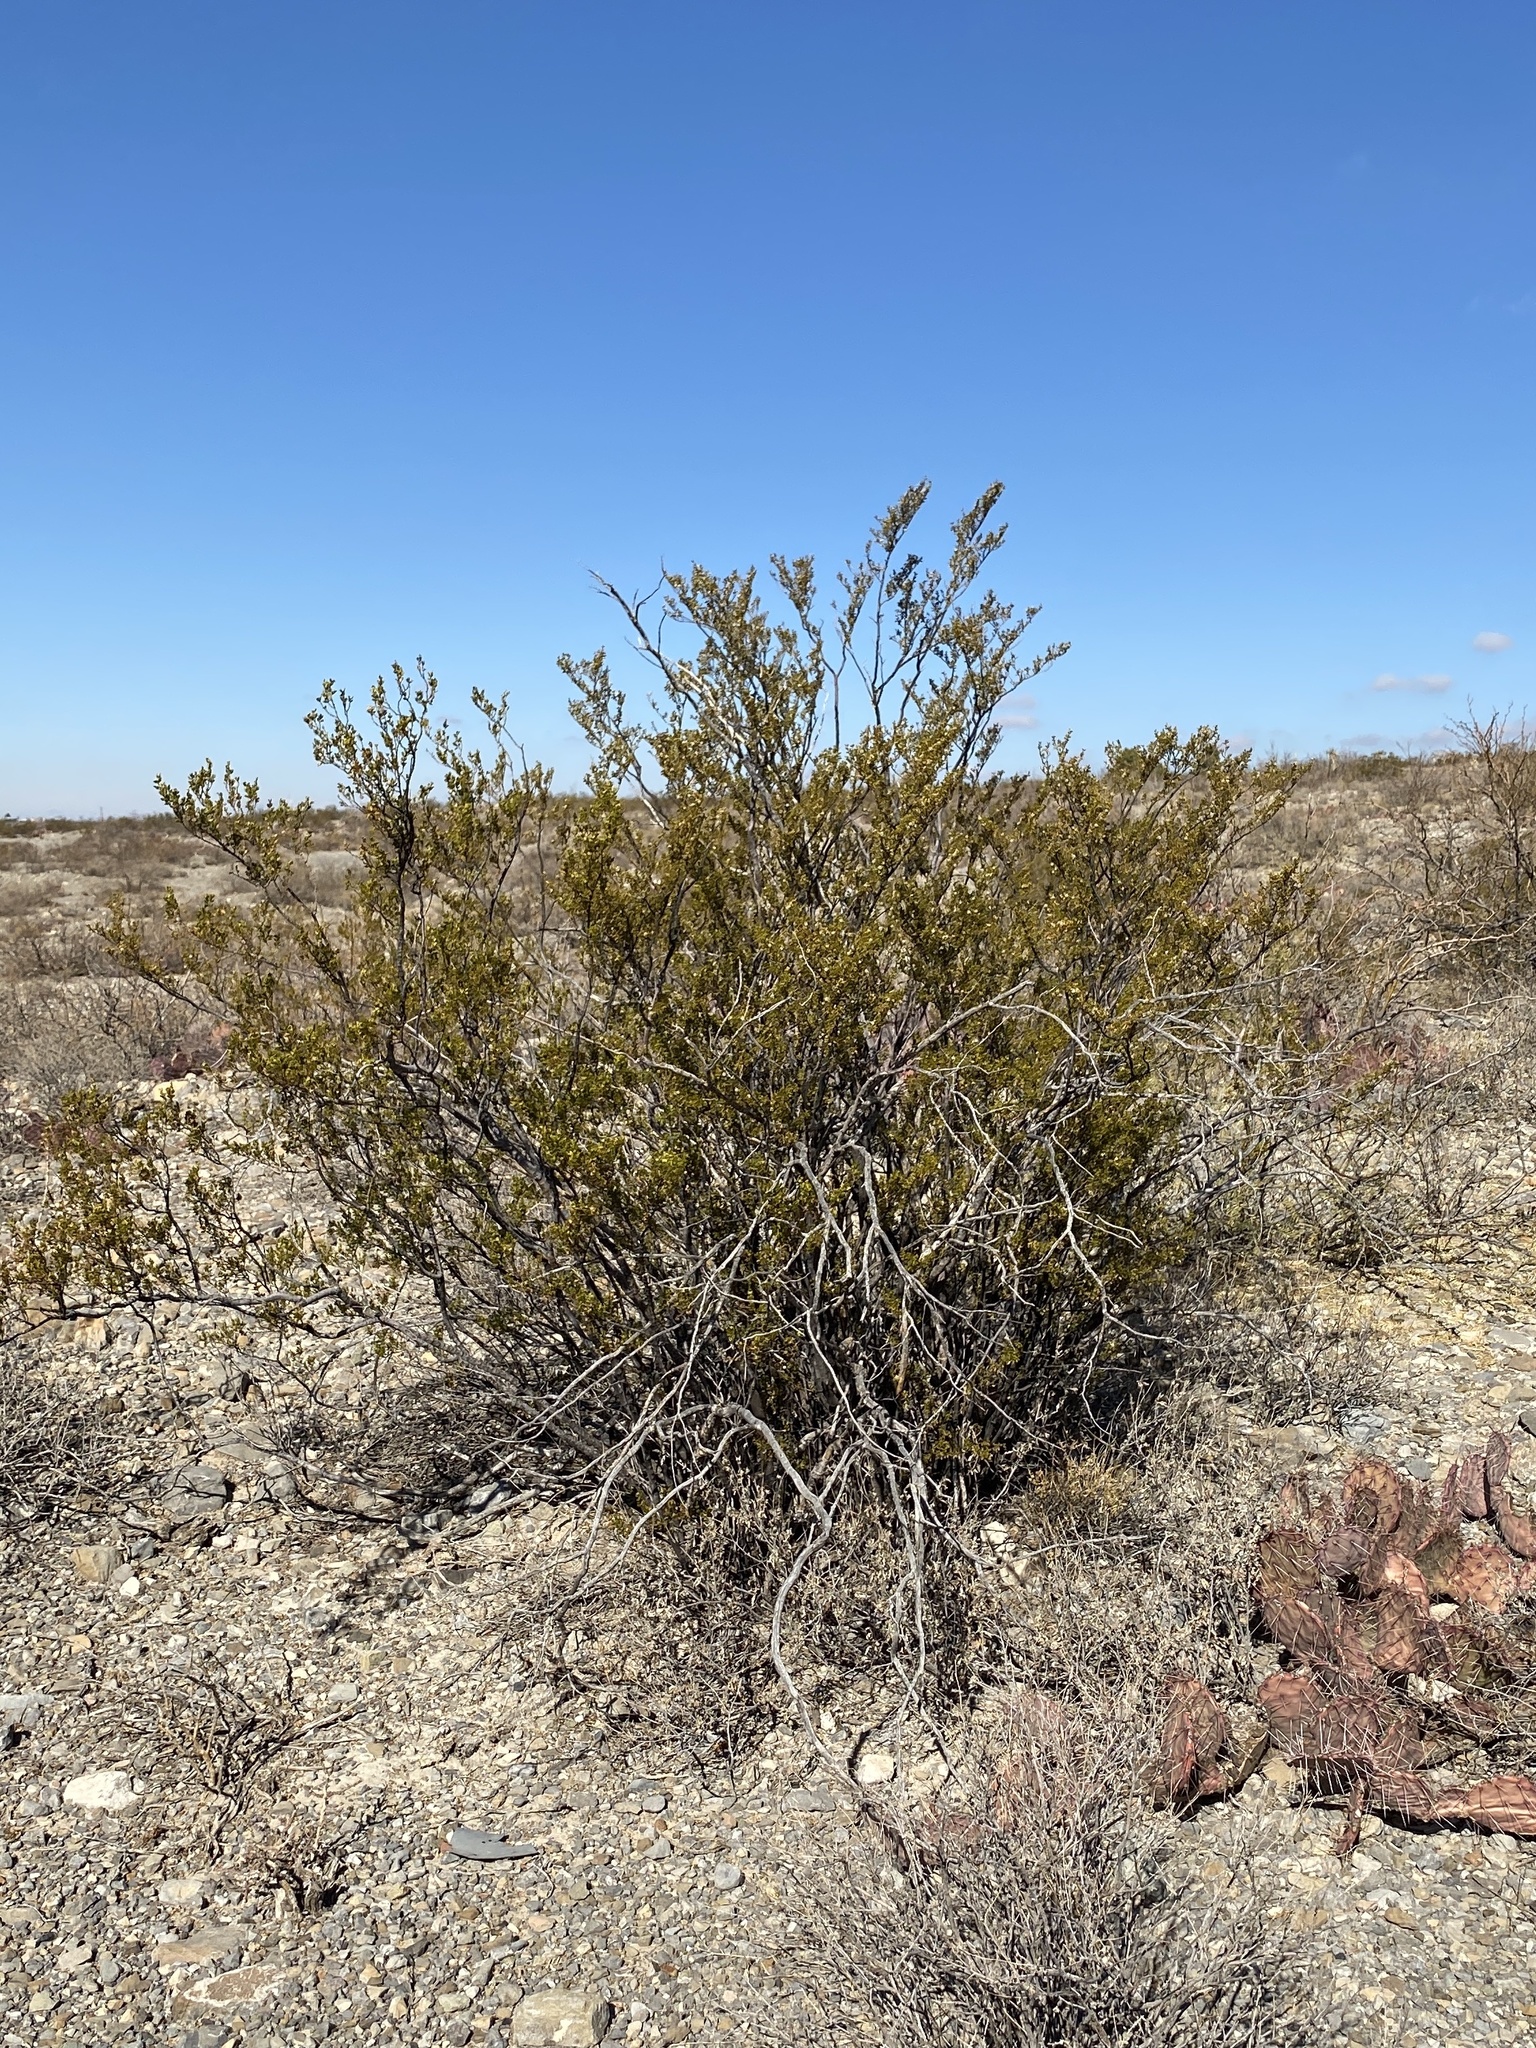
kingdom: Plantae
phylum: Tracheophyta
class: Magnoliopsida
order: Zygophyllales
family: Zygophyllaceae
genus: Larrea
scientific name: Larrea tridentata
